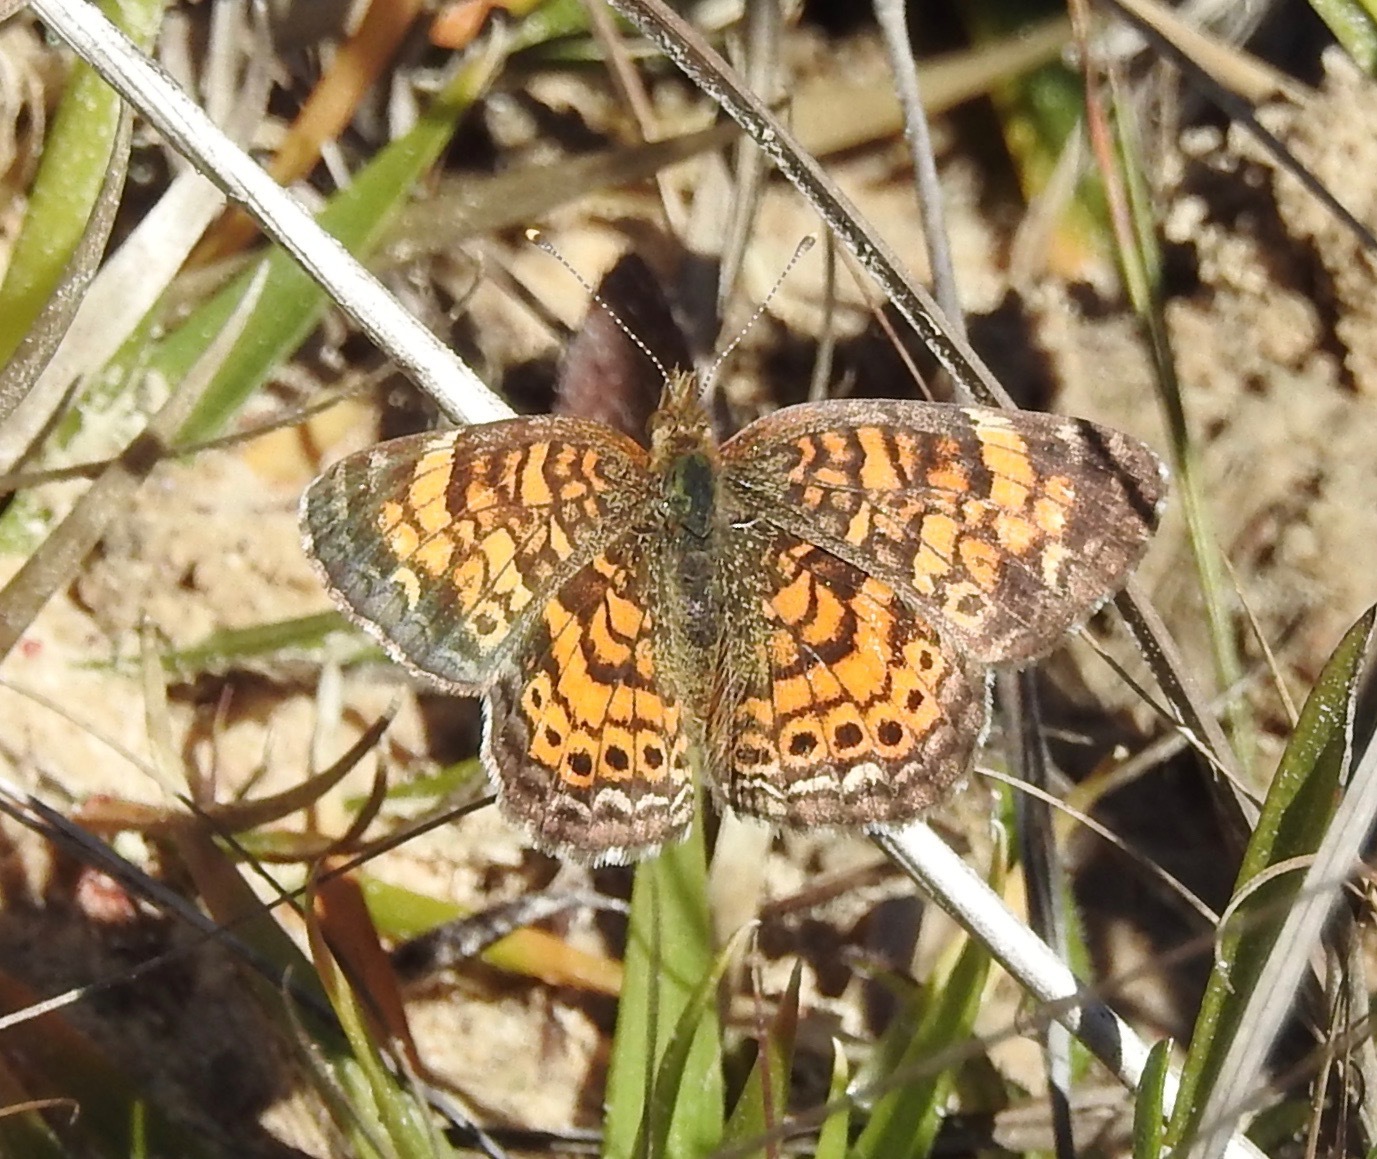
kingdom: Animalia
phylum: Arthropoda
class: Insecta
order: Lepidoptera
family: Nymphalidae
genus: Phyciodes
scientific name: Phyciodes tharos
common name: Pearl crescent
